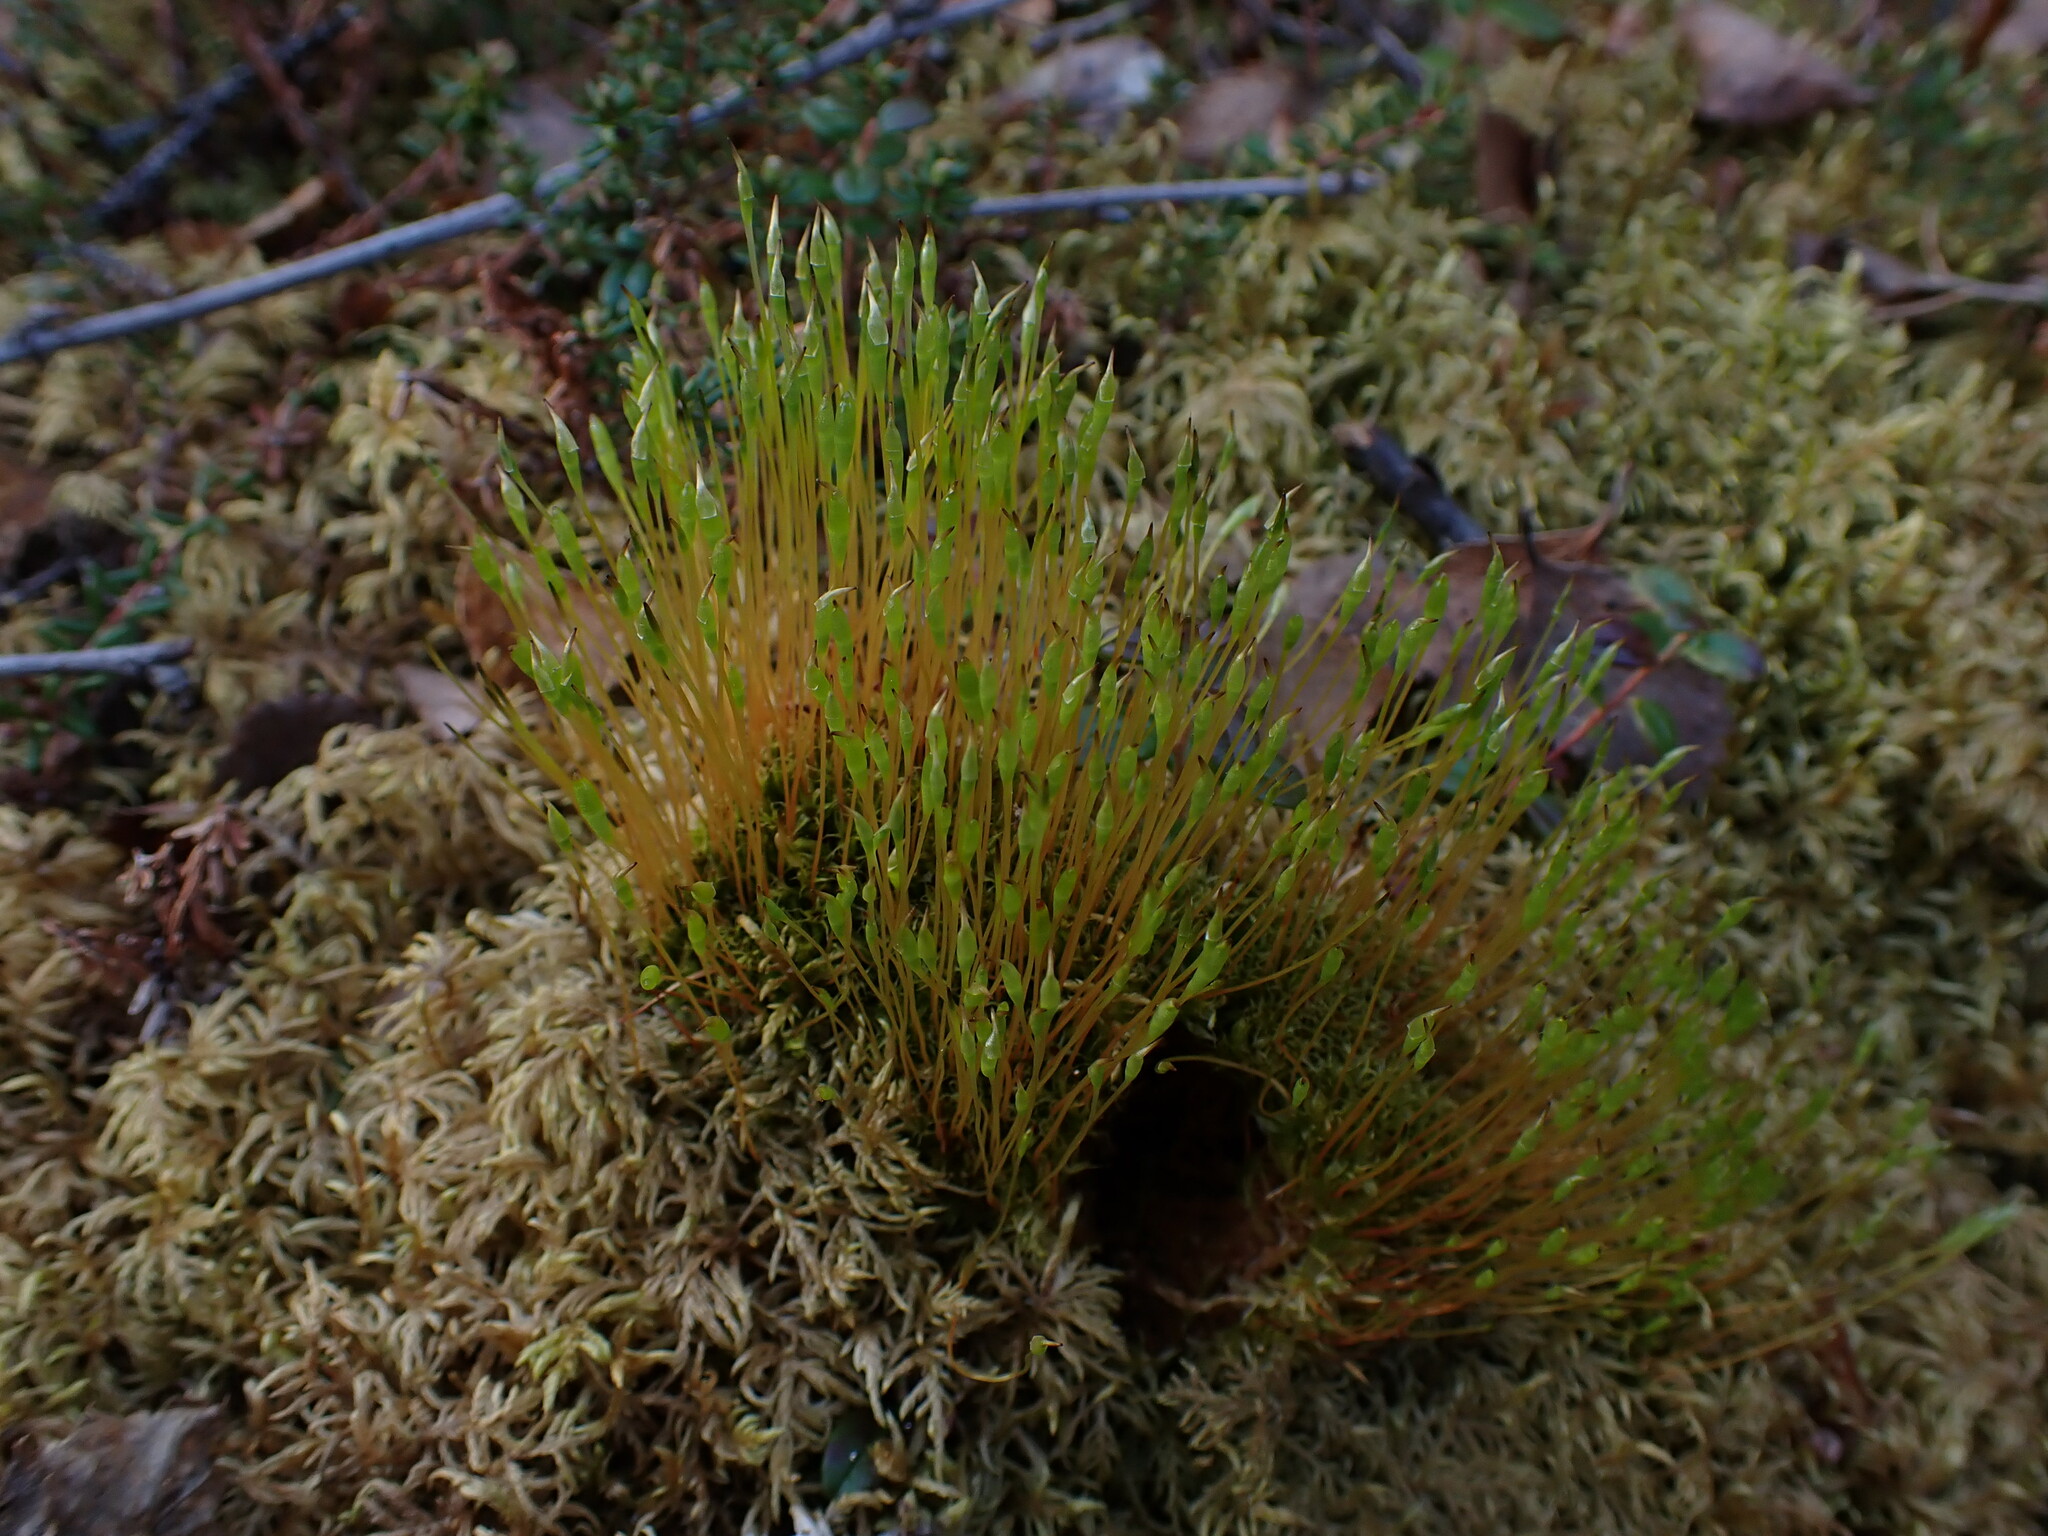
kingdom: Plantae
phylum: Bryophyta
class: Bryopsida
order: Splachnales
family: Splachnaceae
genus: Tetraplodon
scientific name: Tetraplodon mnioides
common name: Entire-leaved nitrogen moss
